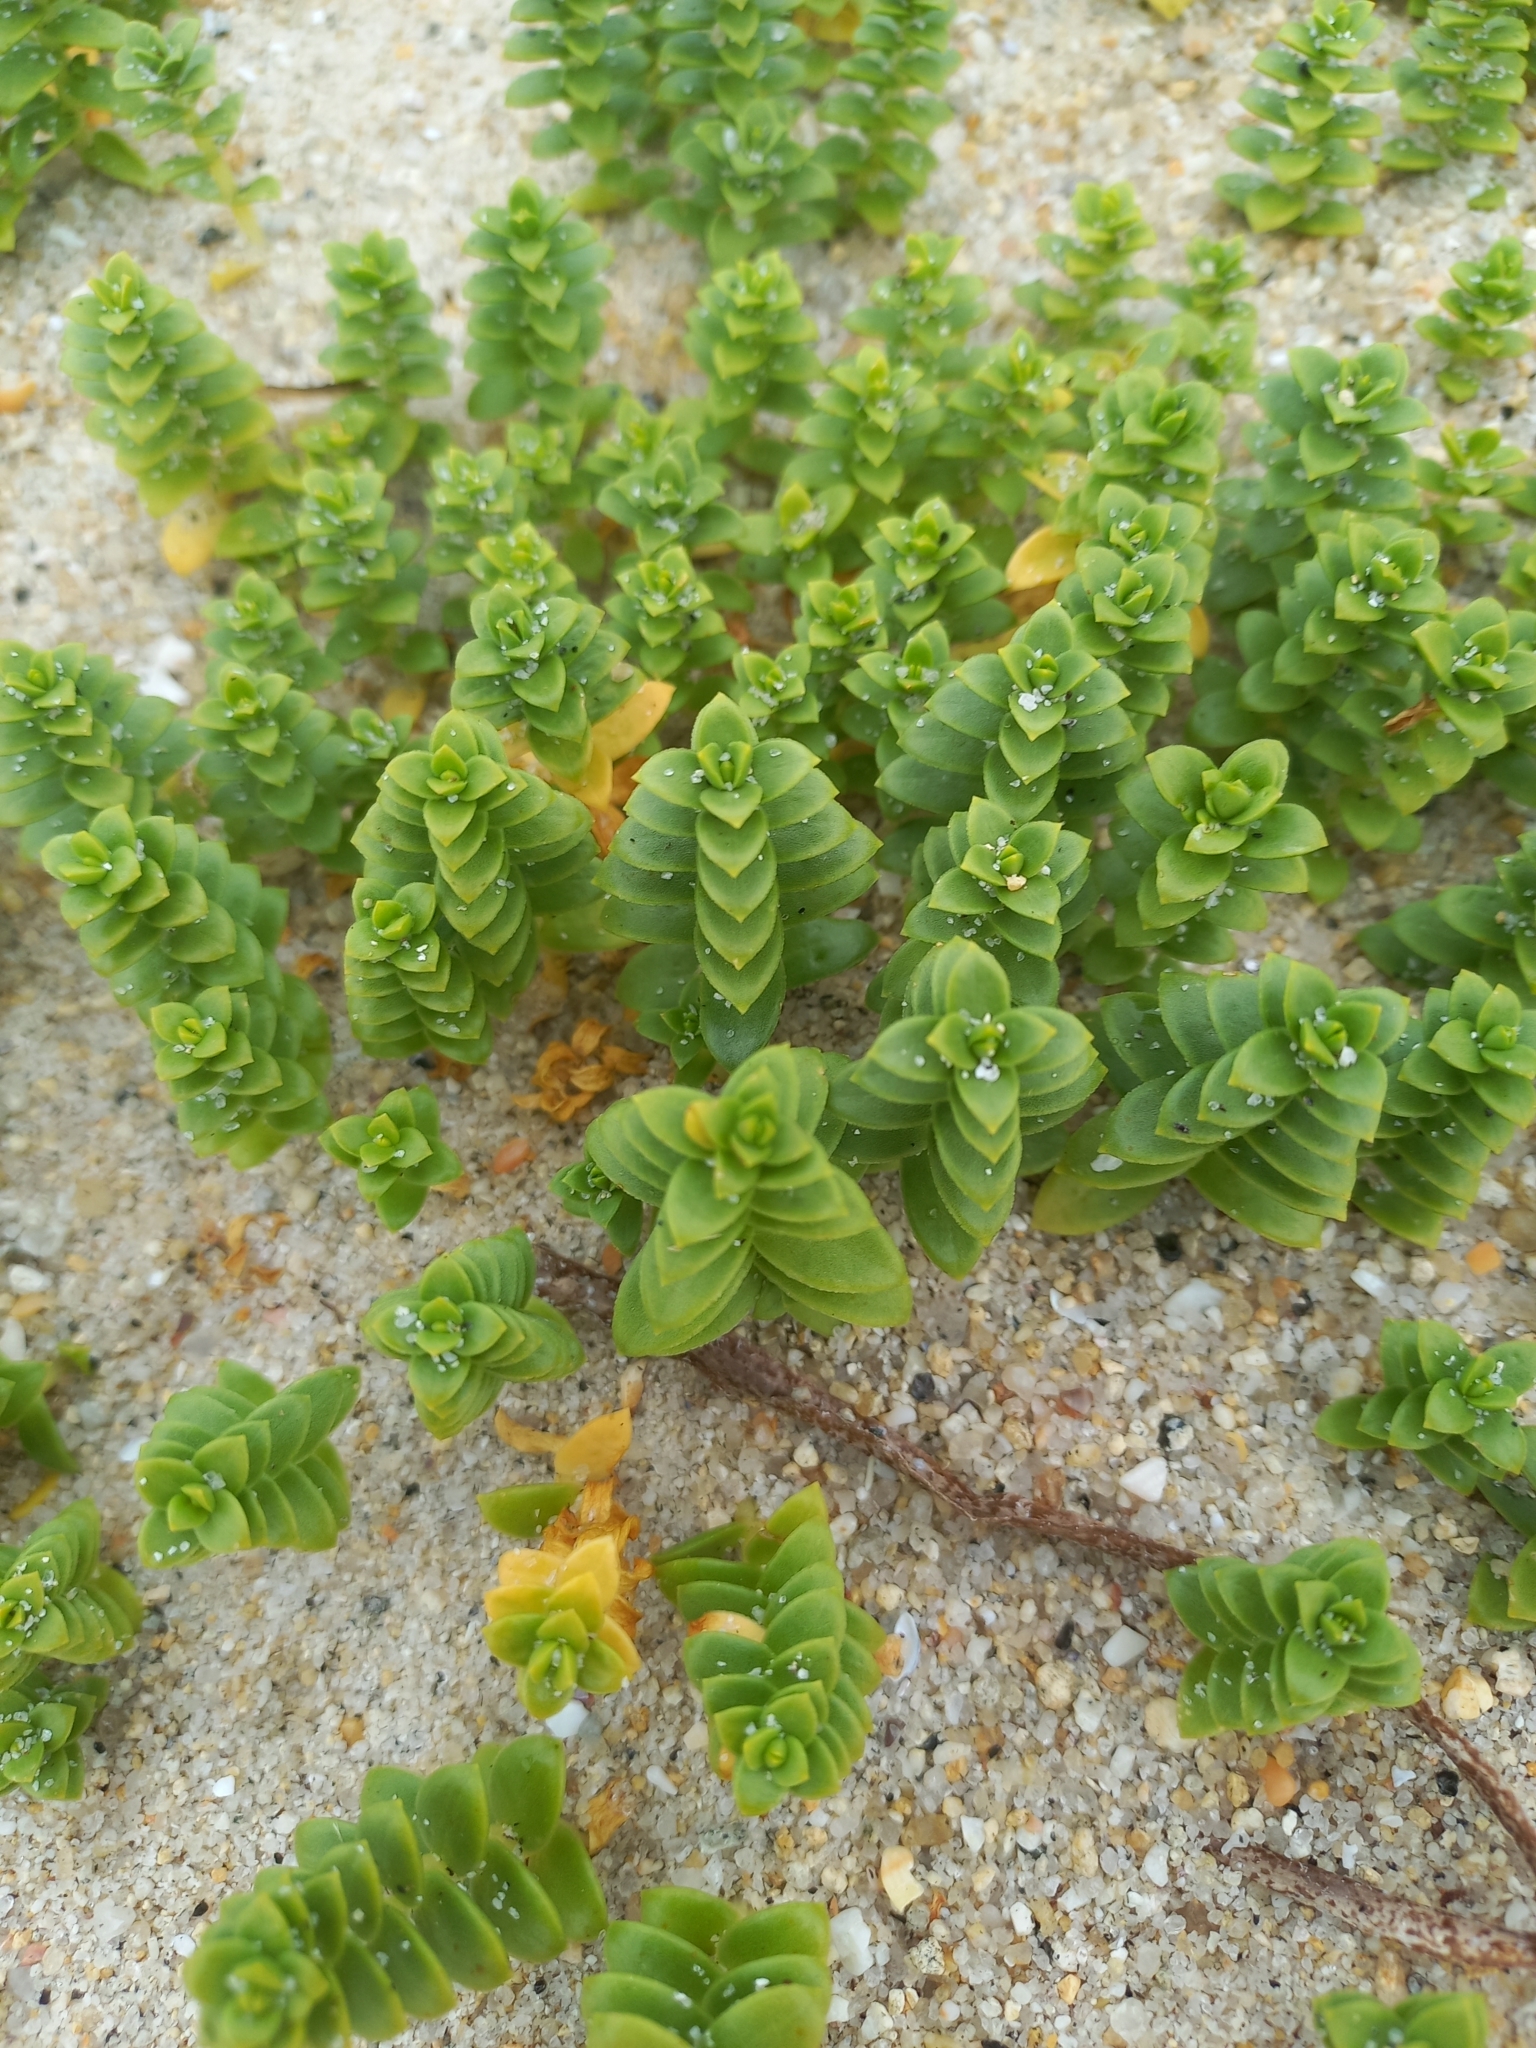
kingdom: Plantae
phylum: Tracheophyta
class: Magnoliopsida
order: Caryophyllales
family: Caryophyllaceae
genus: Honckenya
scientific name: Honckenya peploides
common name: Sea sandwort
